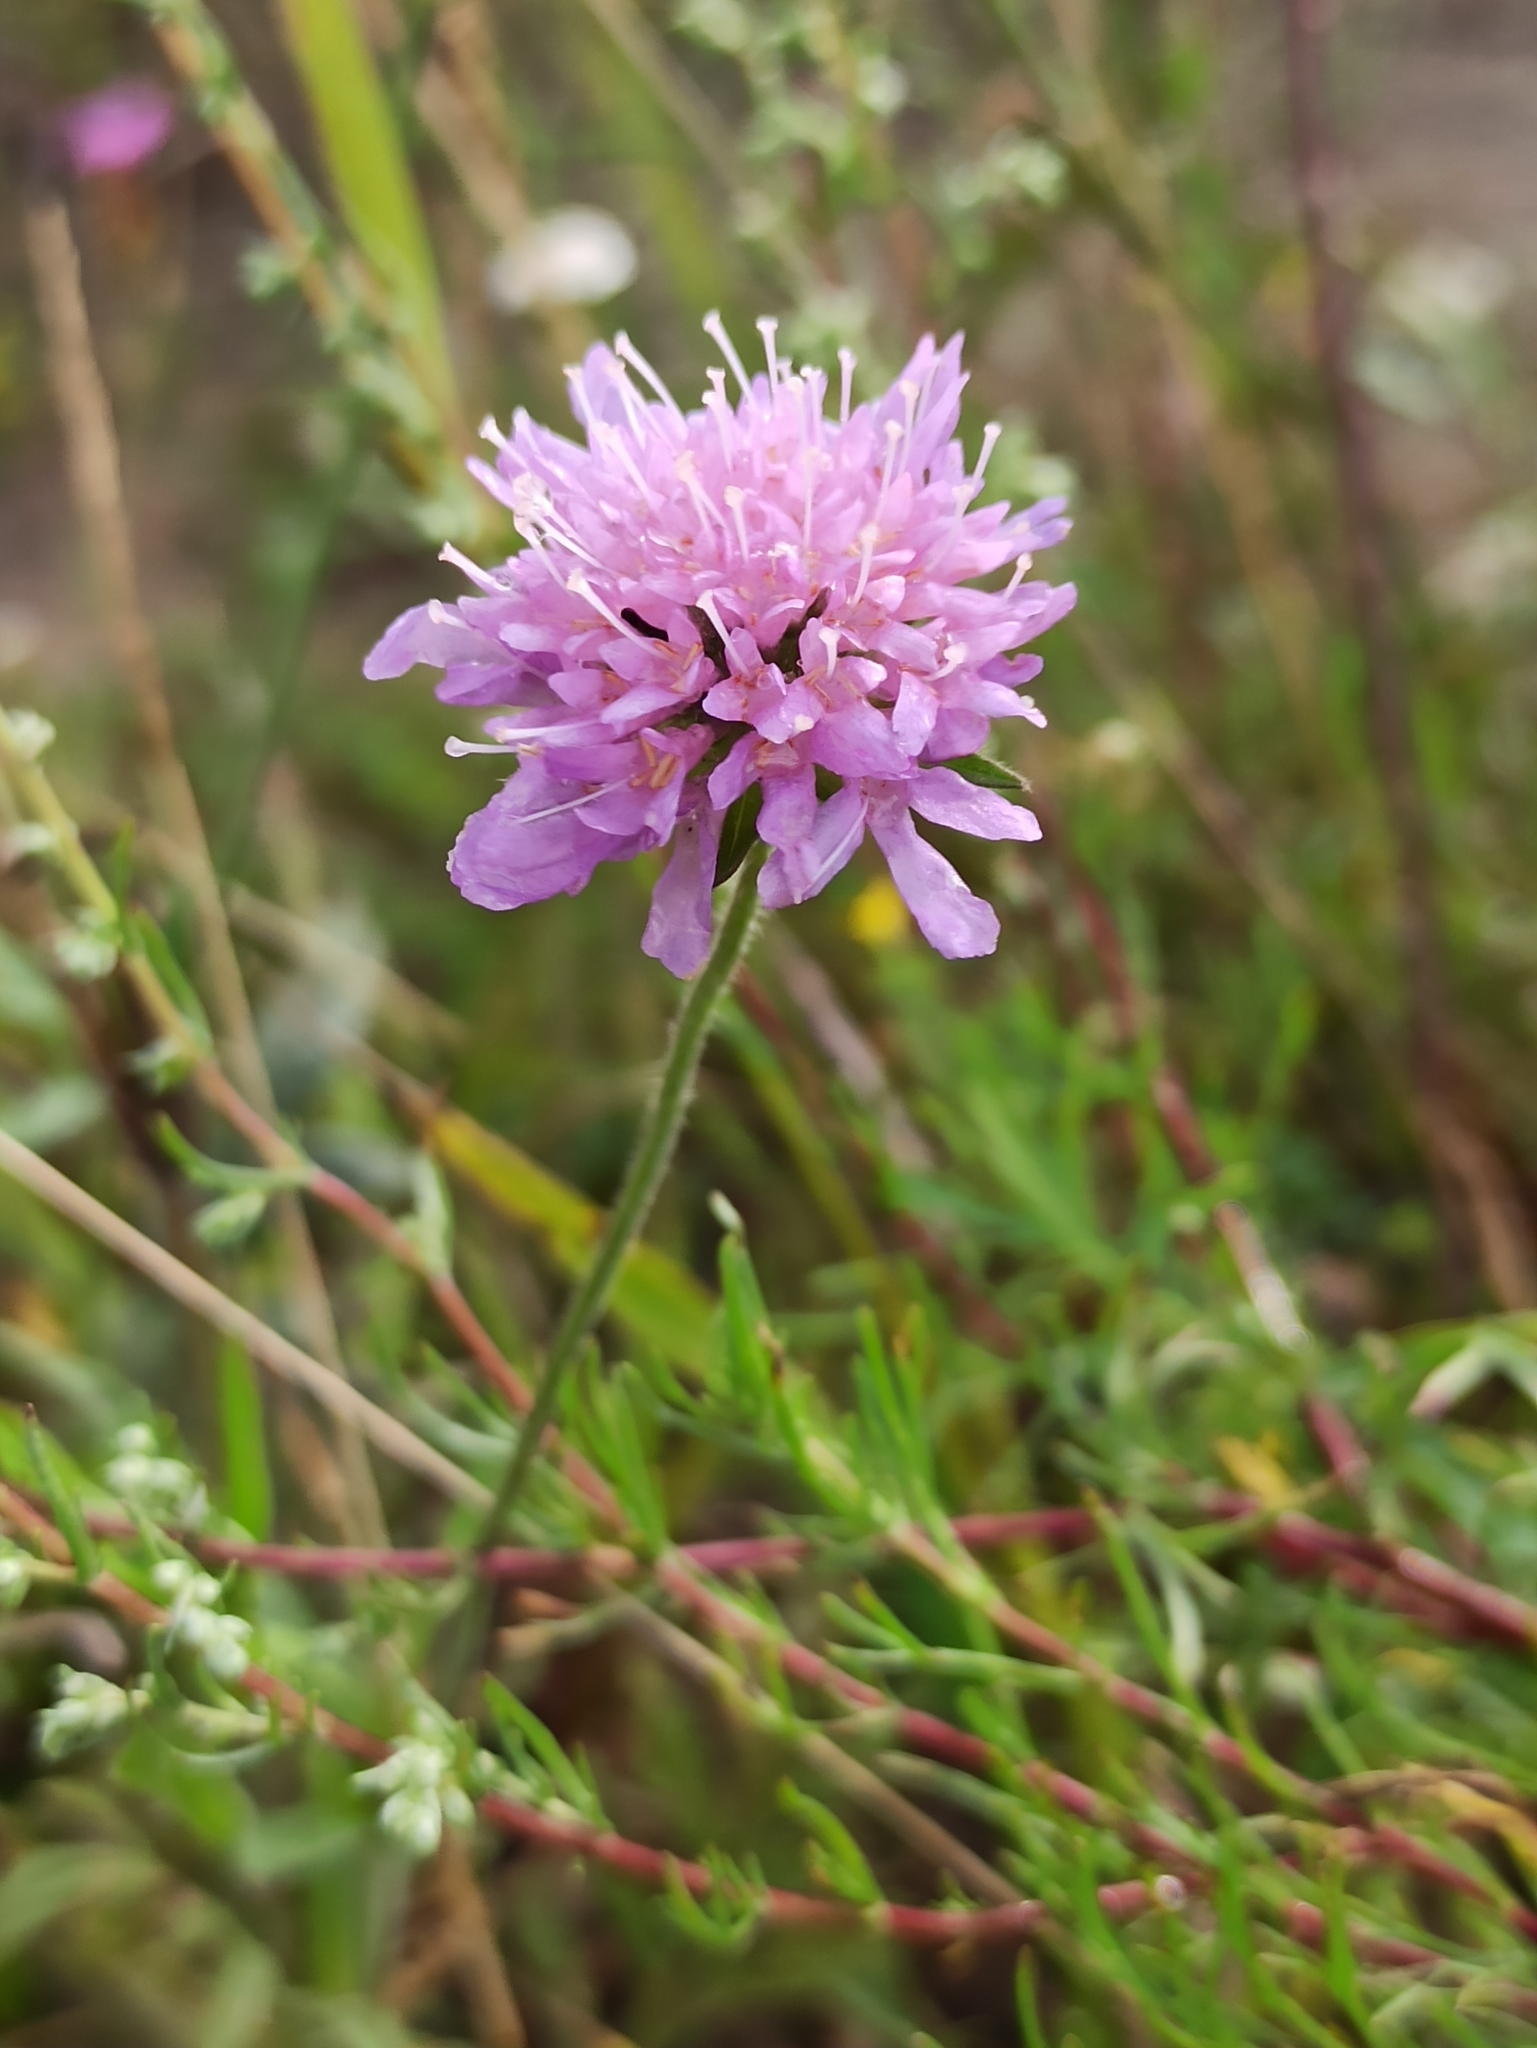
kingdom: Plantae
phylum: Tracheophyta
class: Magnoliopsida
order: Dipsacales
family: Caprifoliaceae
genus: Knautia
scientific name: Knautia arvensis
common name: Field scabiosa
